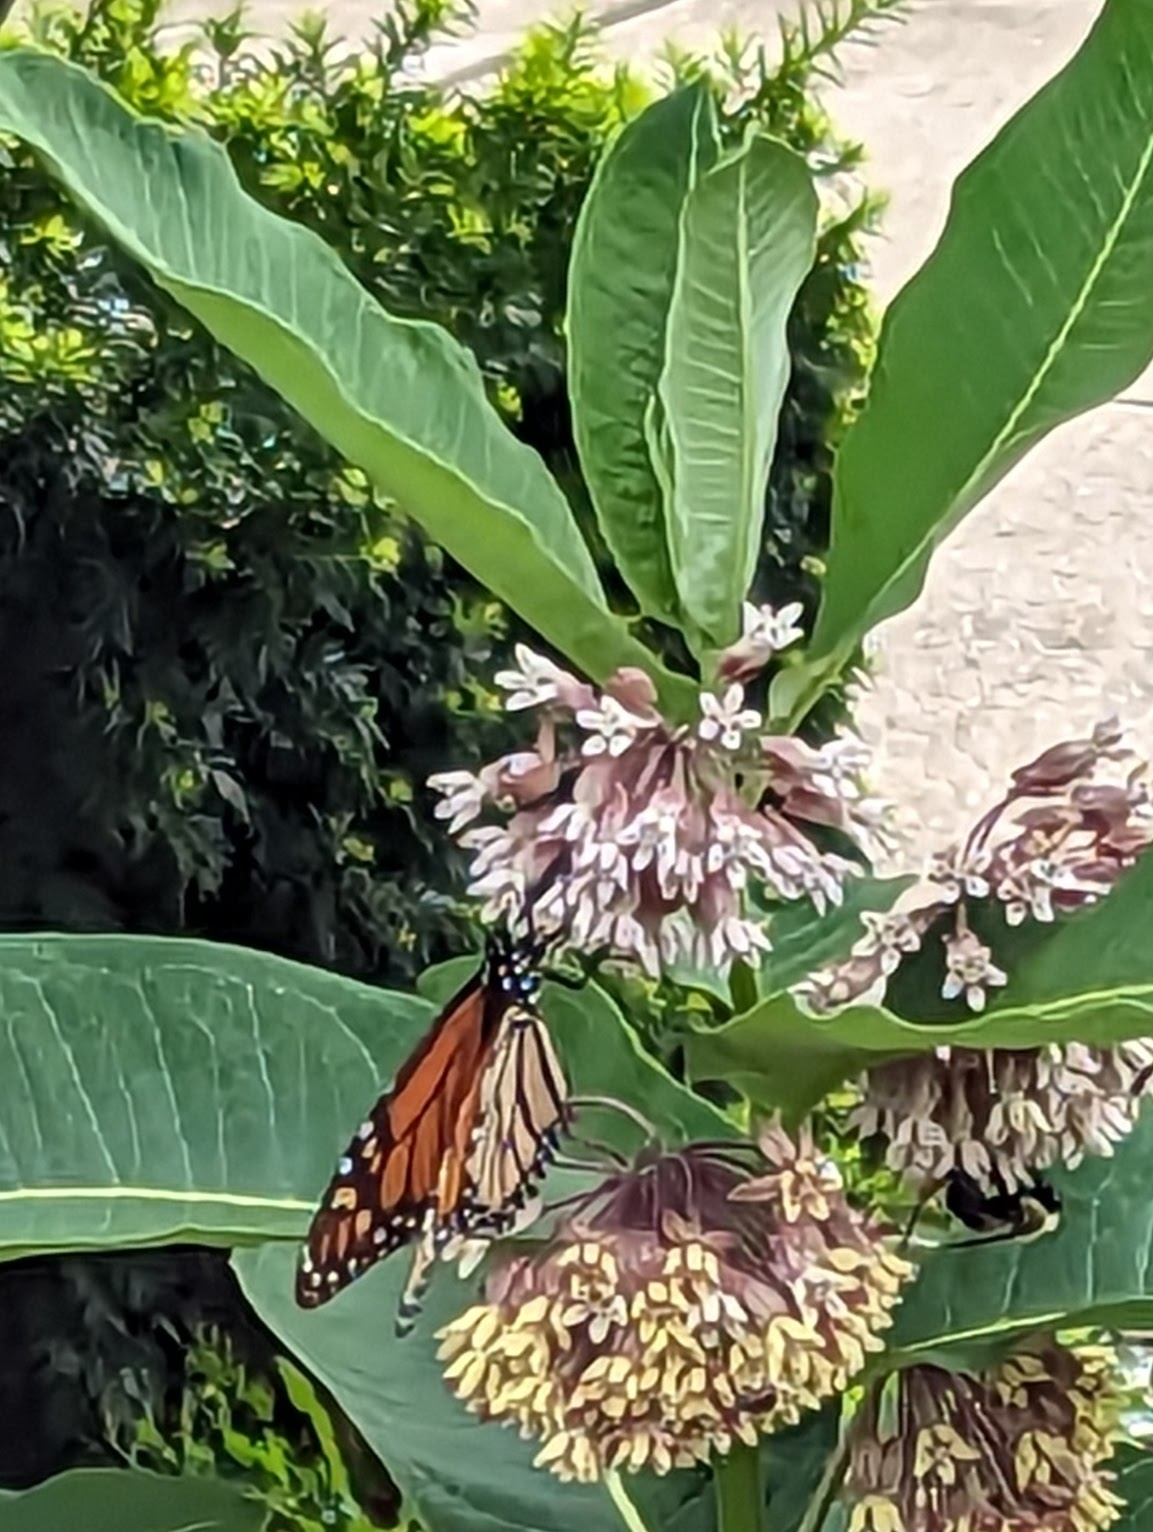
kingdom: Animalia
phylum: Arthropoda
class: Insecta
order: Lepidoptera
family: Nymphalidae
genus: Danaus
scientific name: Danaus plexippus
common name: Monarch
